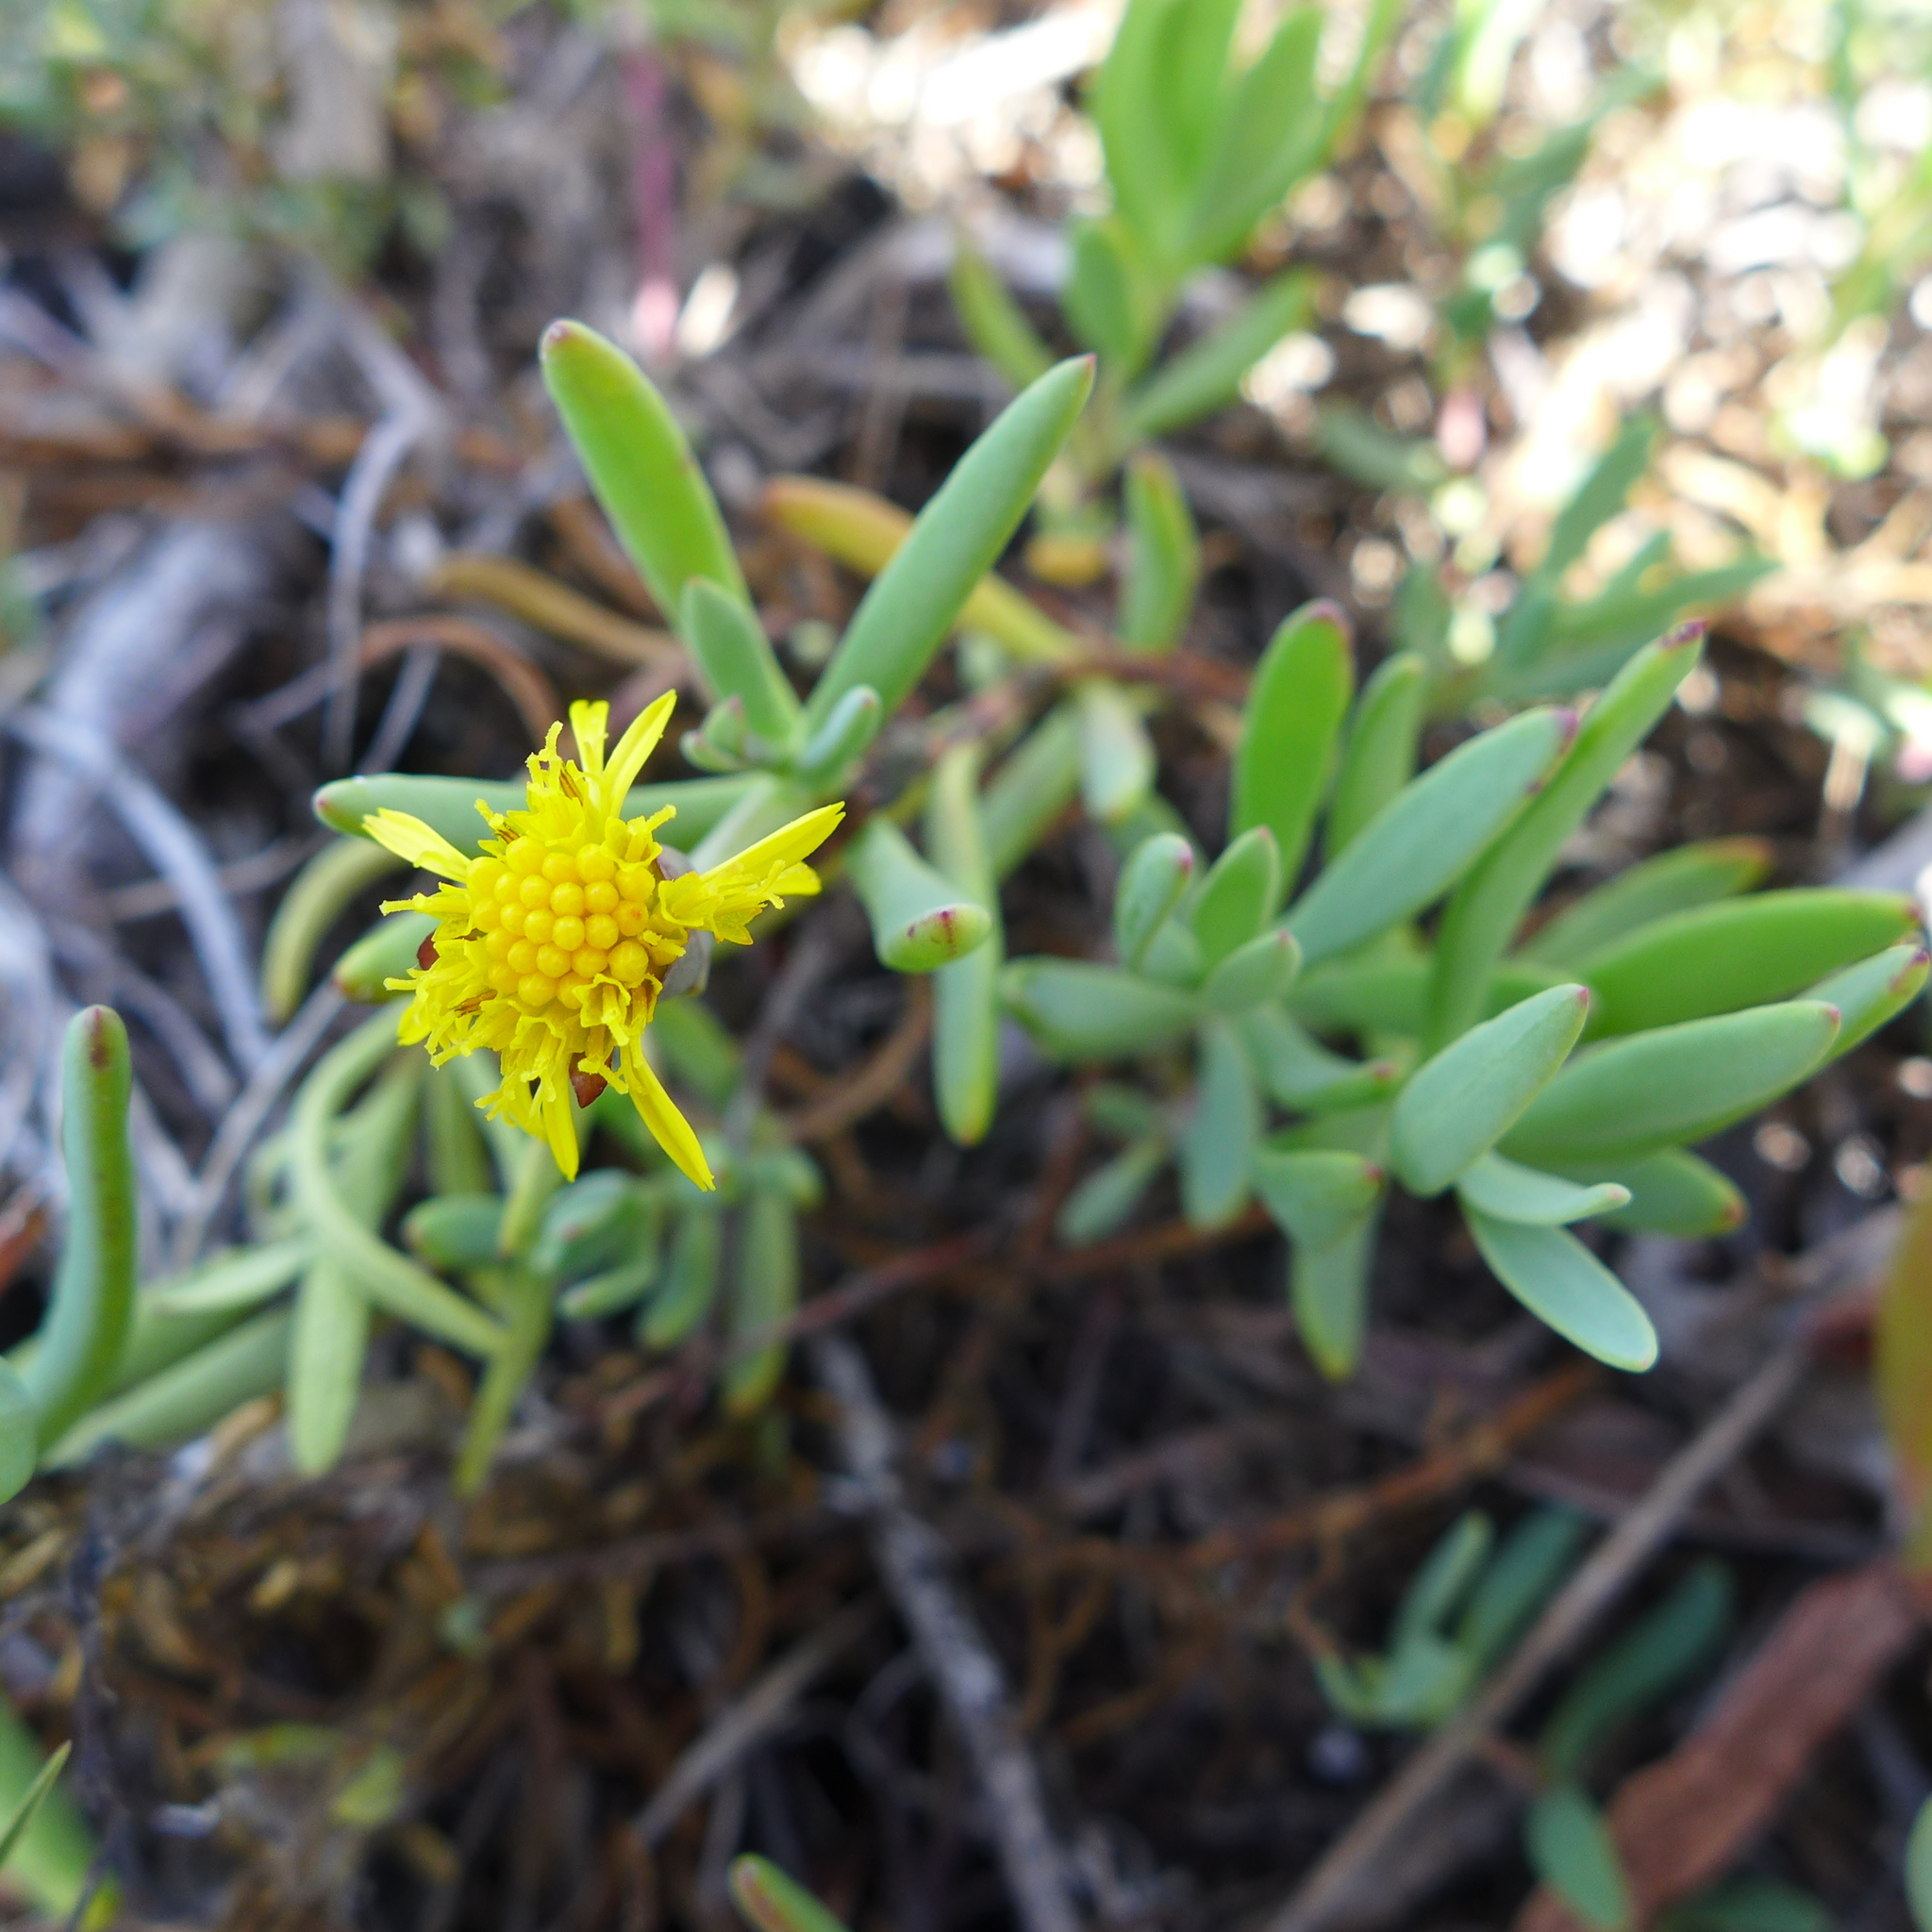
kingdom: Plantae
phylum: Tracheophyta
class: Magnoliopsida
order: Asterales
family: Asteraceae
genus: Jaumea
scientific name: Jaumea carnosa
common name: Fleshy jaumea
